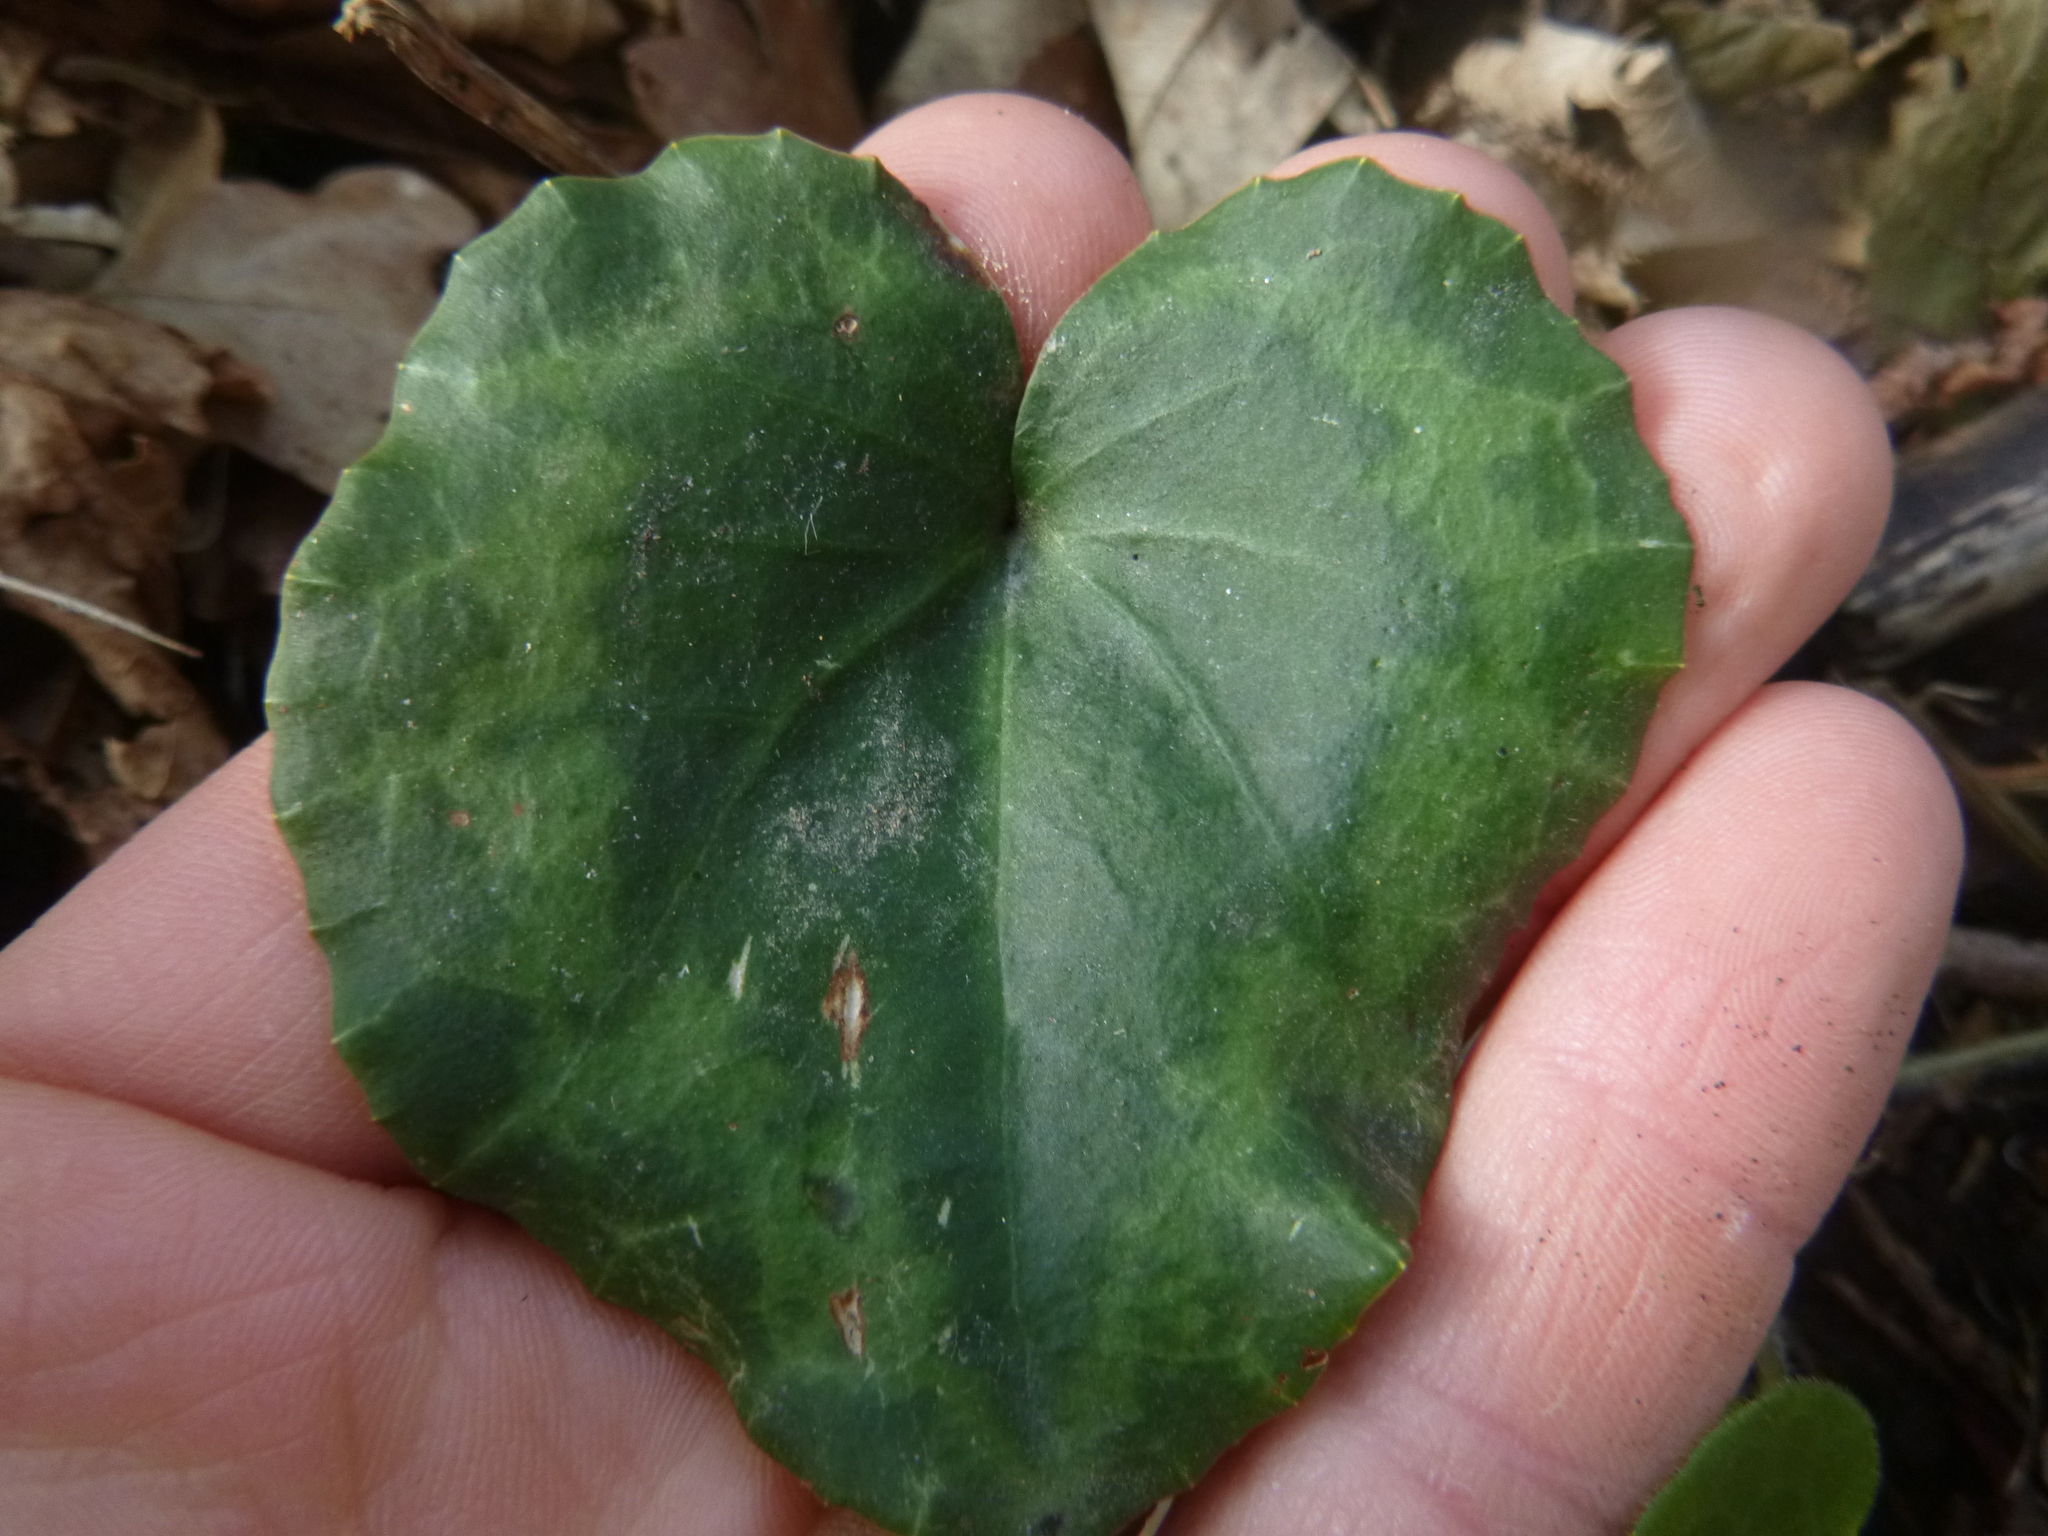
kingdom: Plantae
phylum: Tracheophyta
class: Magnoliopsida
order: Ericales
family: Primulaceae
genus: Cyclamen
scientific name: Cyclamen purpurascens
